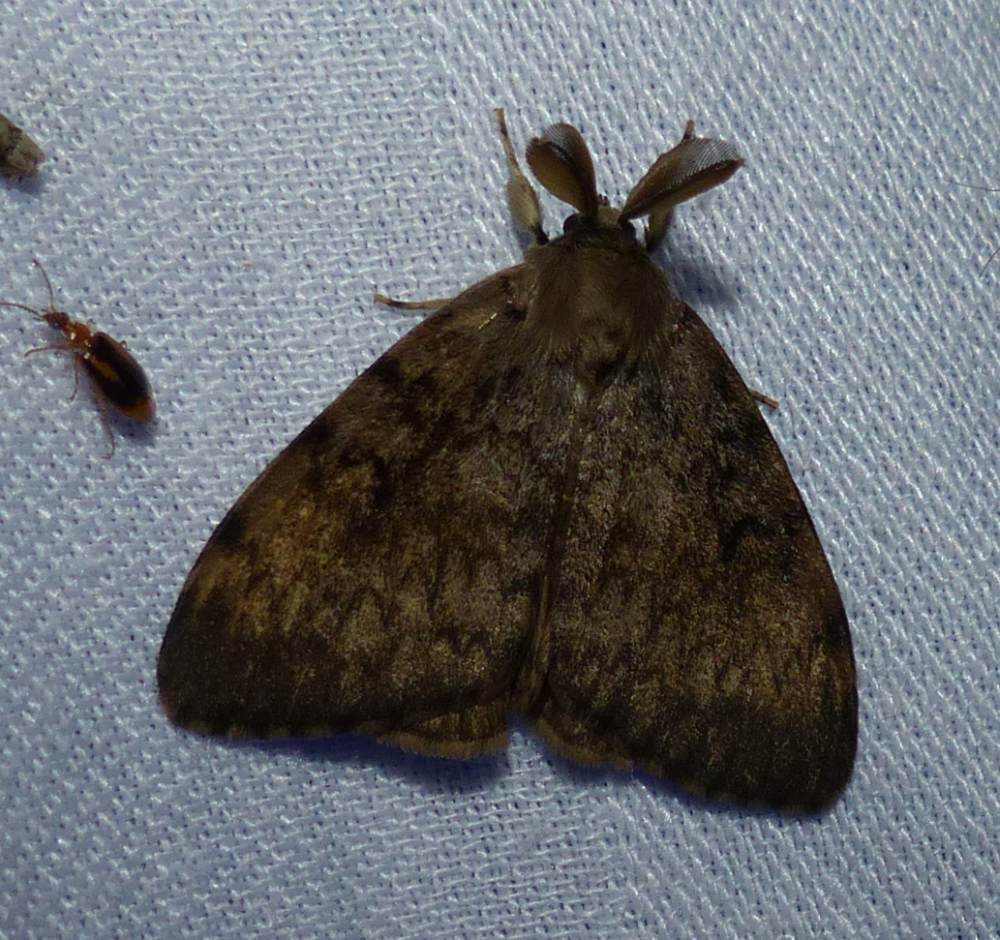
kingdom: Animalia
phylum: Arthropoda
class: Insecta
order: Lepidoptera
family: Erebidae
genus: Lymantria
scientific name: Lymantria dispar
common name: Gypsy moth
